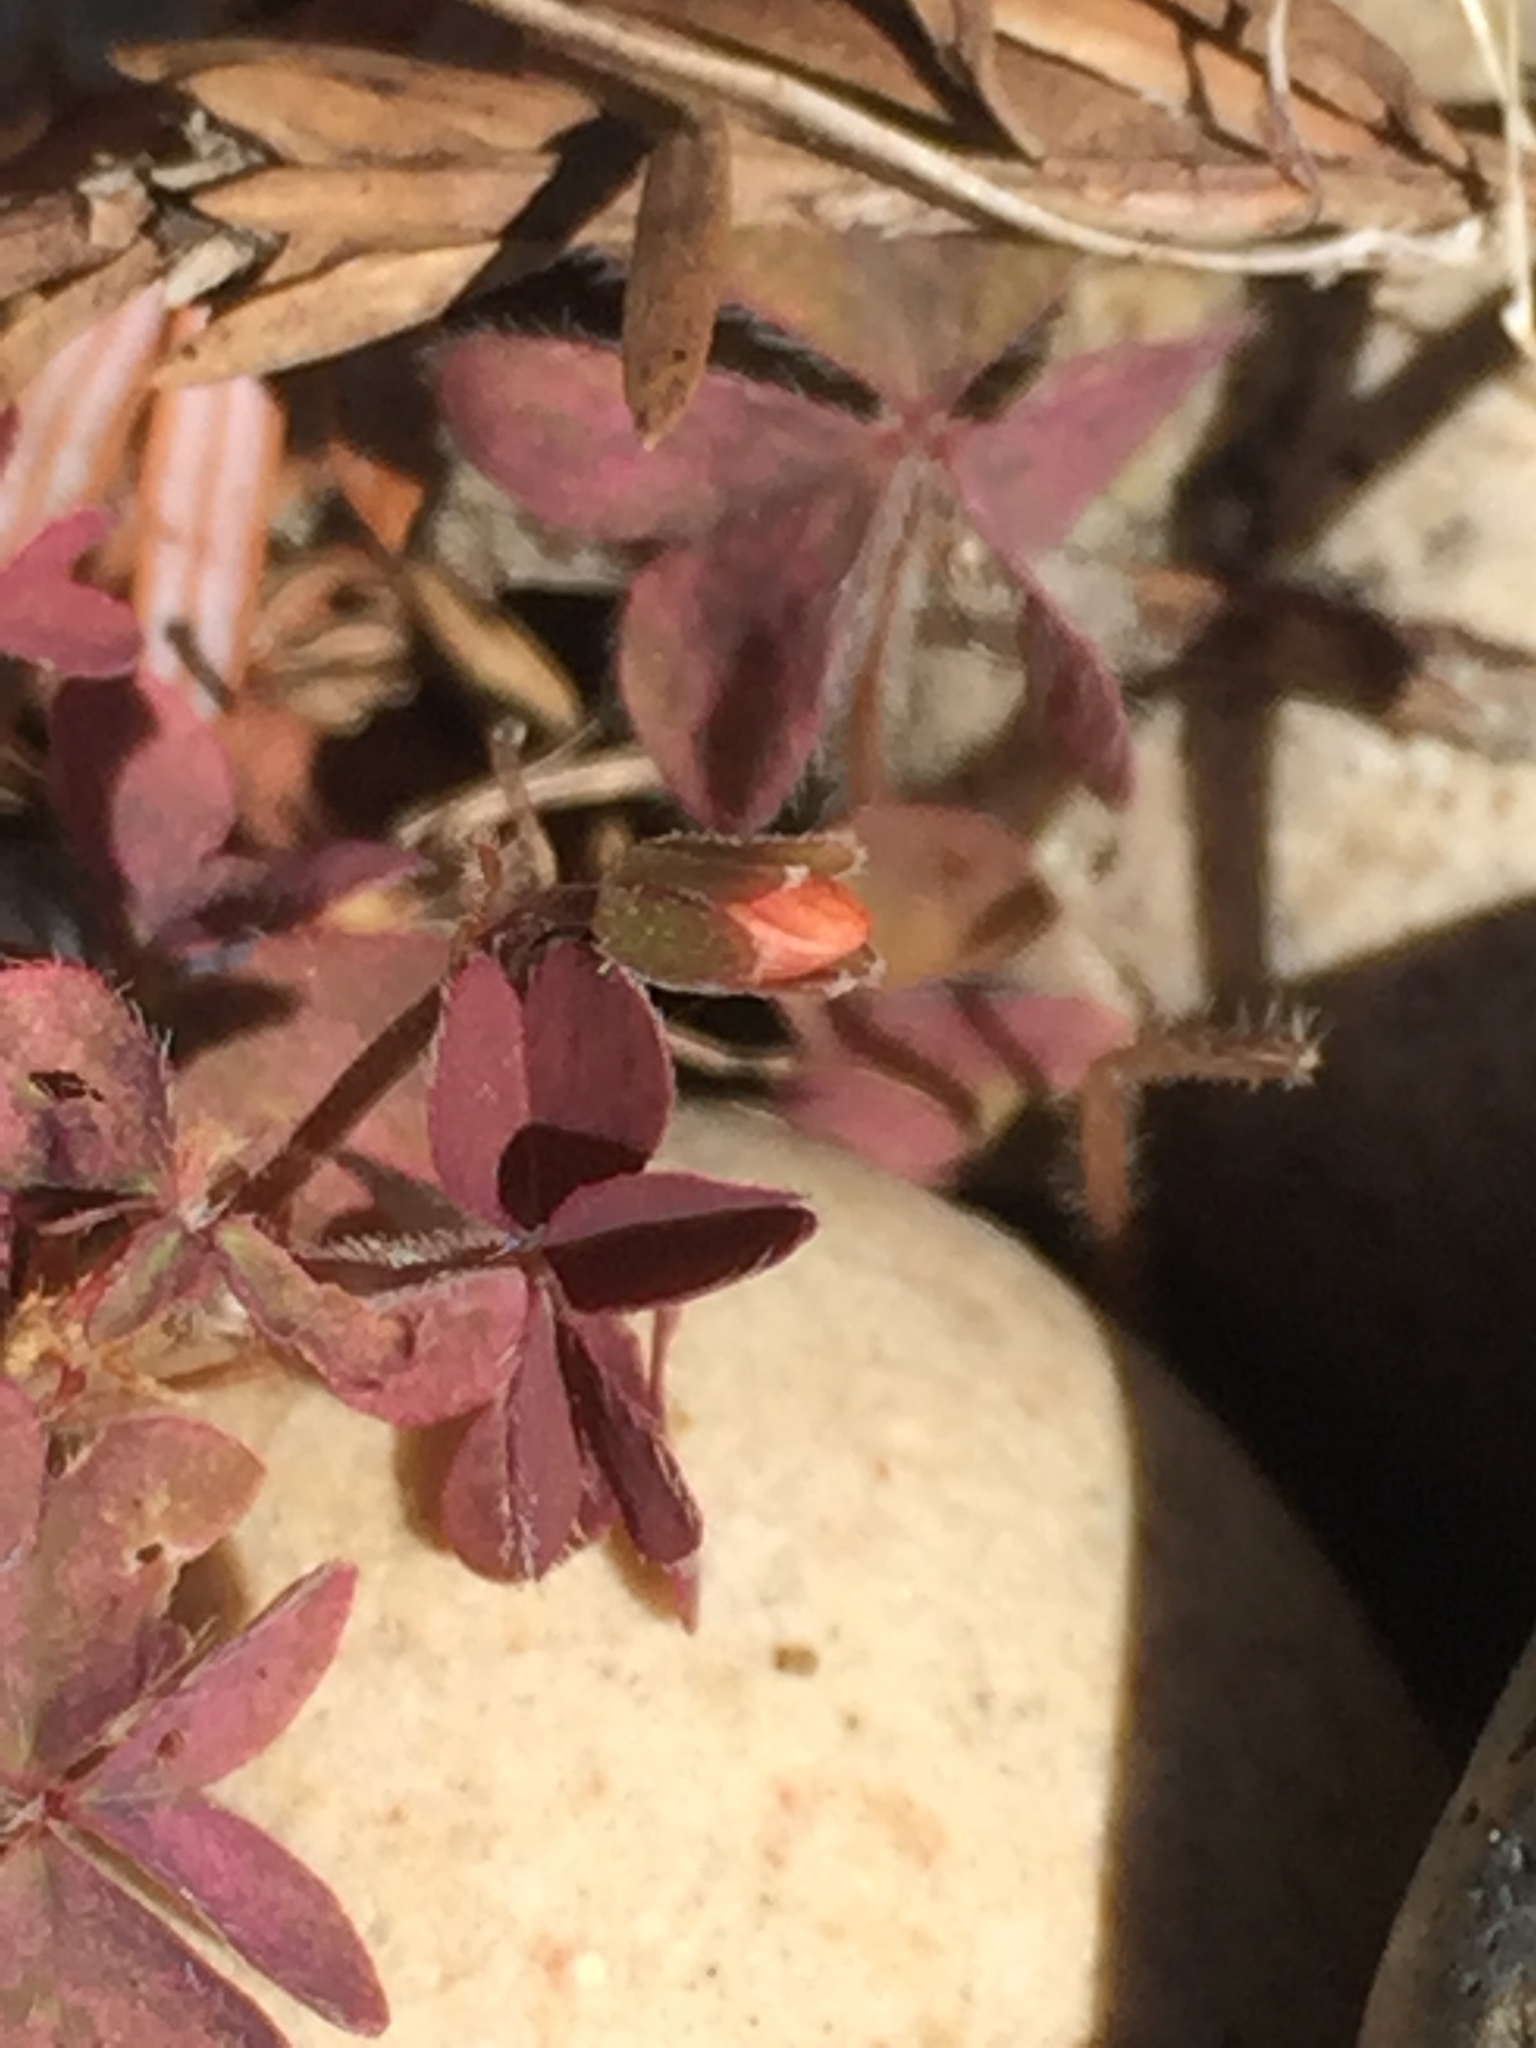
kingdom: Plantae
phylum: Tracheophyta
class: Magnoliopsida
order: Oxalidales
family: Oxalidaceae
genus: Oxalis
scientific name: Oxalis corniculata
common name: Procumbent yellow-sorrel
